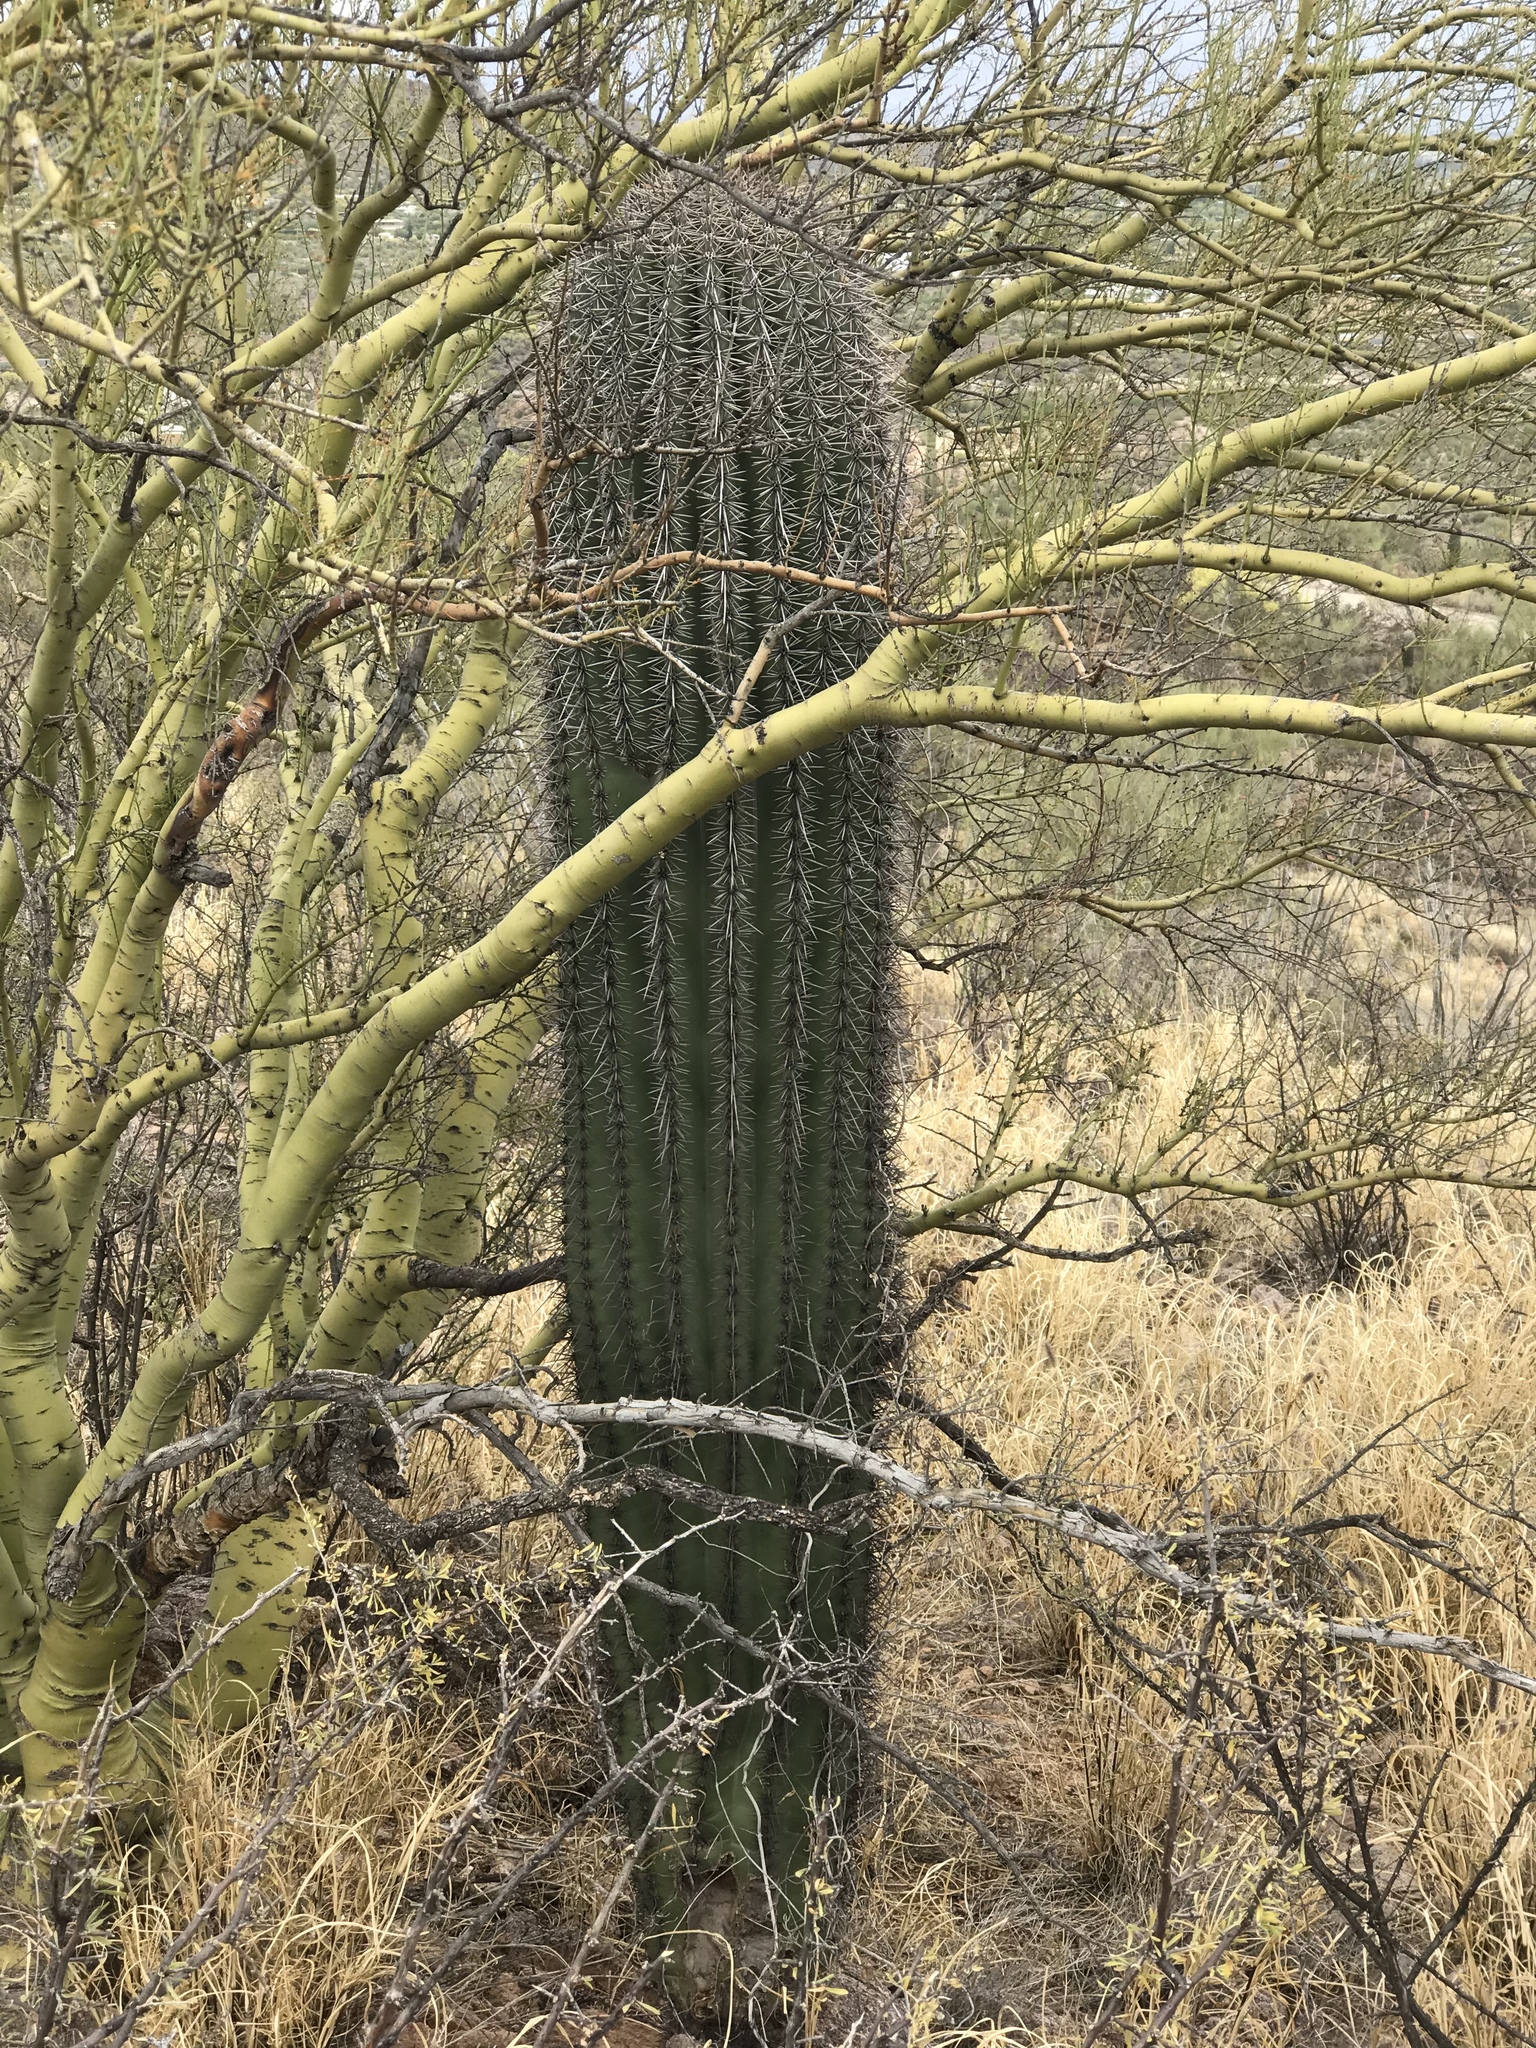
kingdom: Plantae
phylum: Tracheophyta
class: Magnoliopsida
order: Caryophyllales
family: Cactaceae
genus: Carnegiea
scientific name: Carnegiea gigantea
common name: Saguaro
